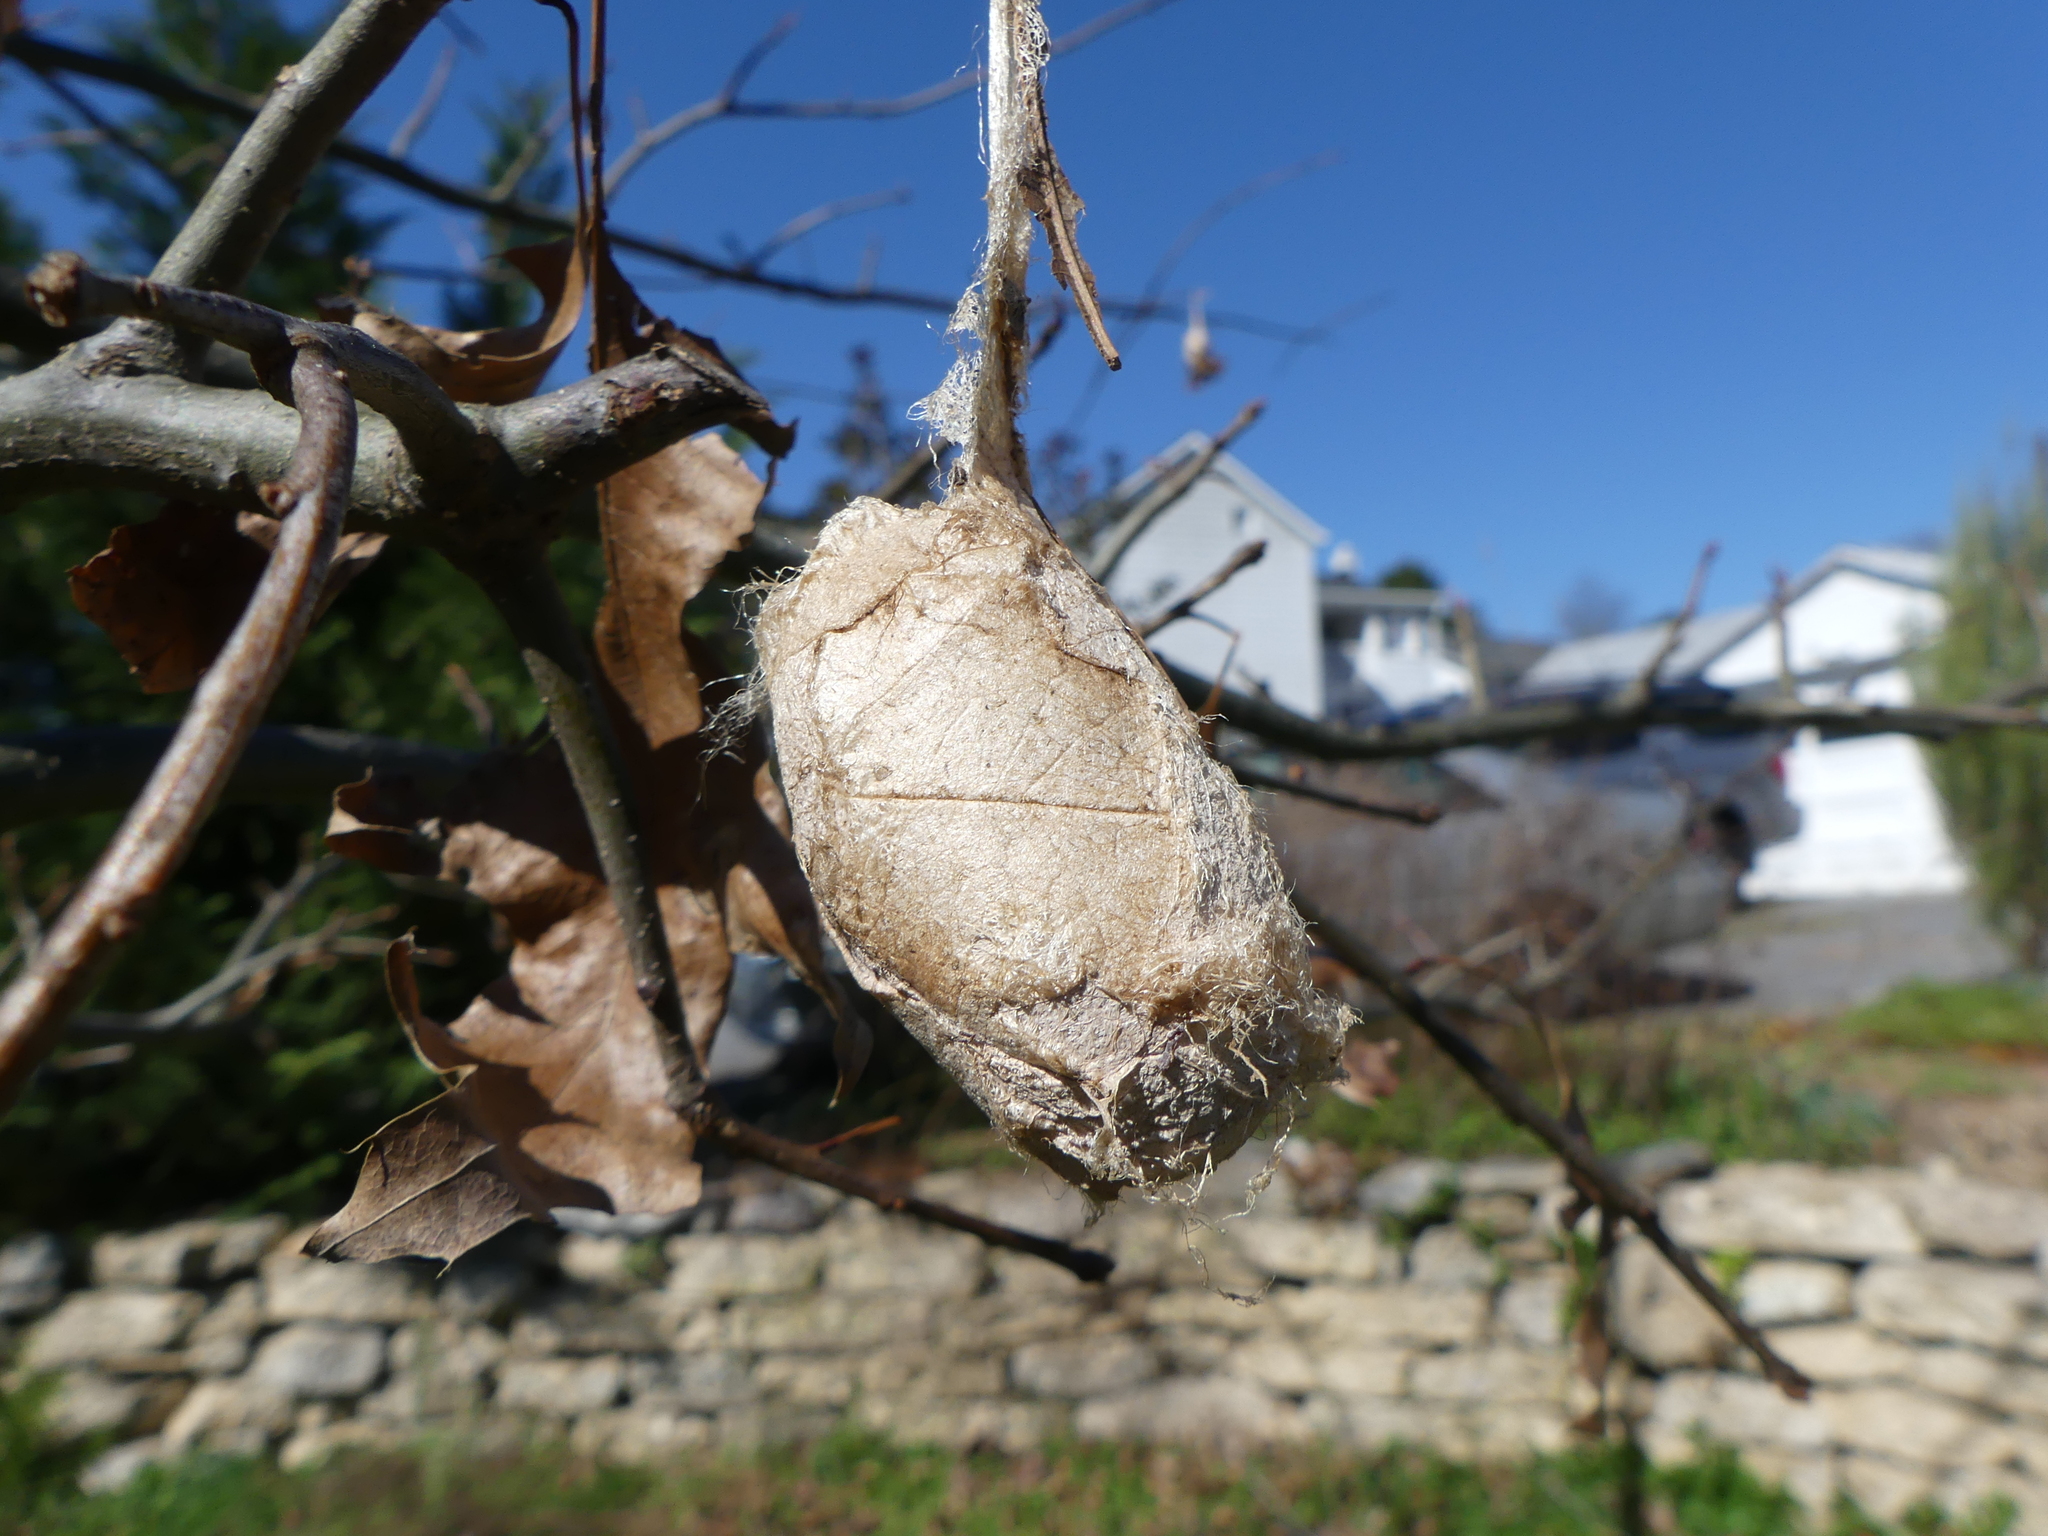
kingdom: Animalia
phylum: Arthropoda
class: Insecta
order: Lepidoptera
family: Saturniidae
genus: Antheraea
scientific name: Antheraea polyphemus
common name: Polyphemus moth
